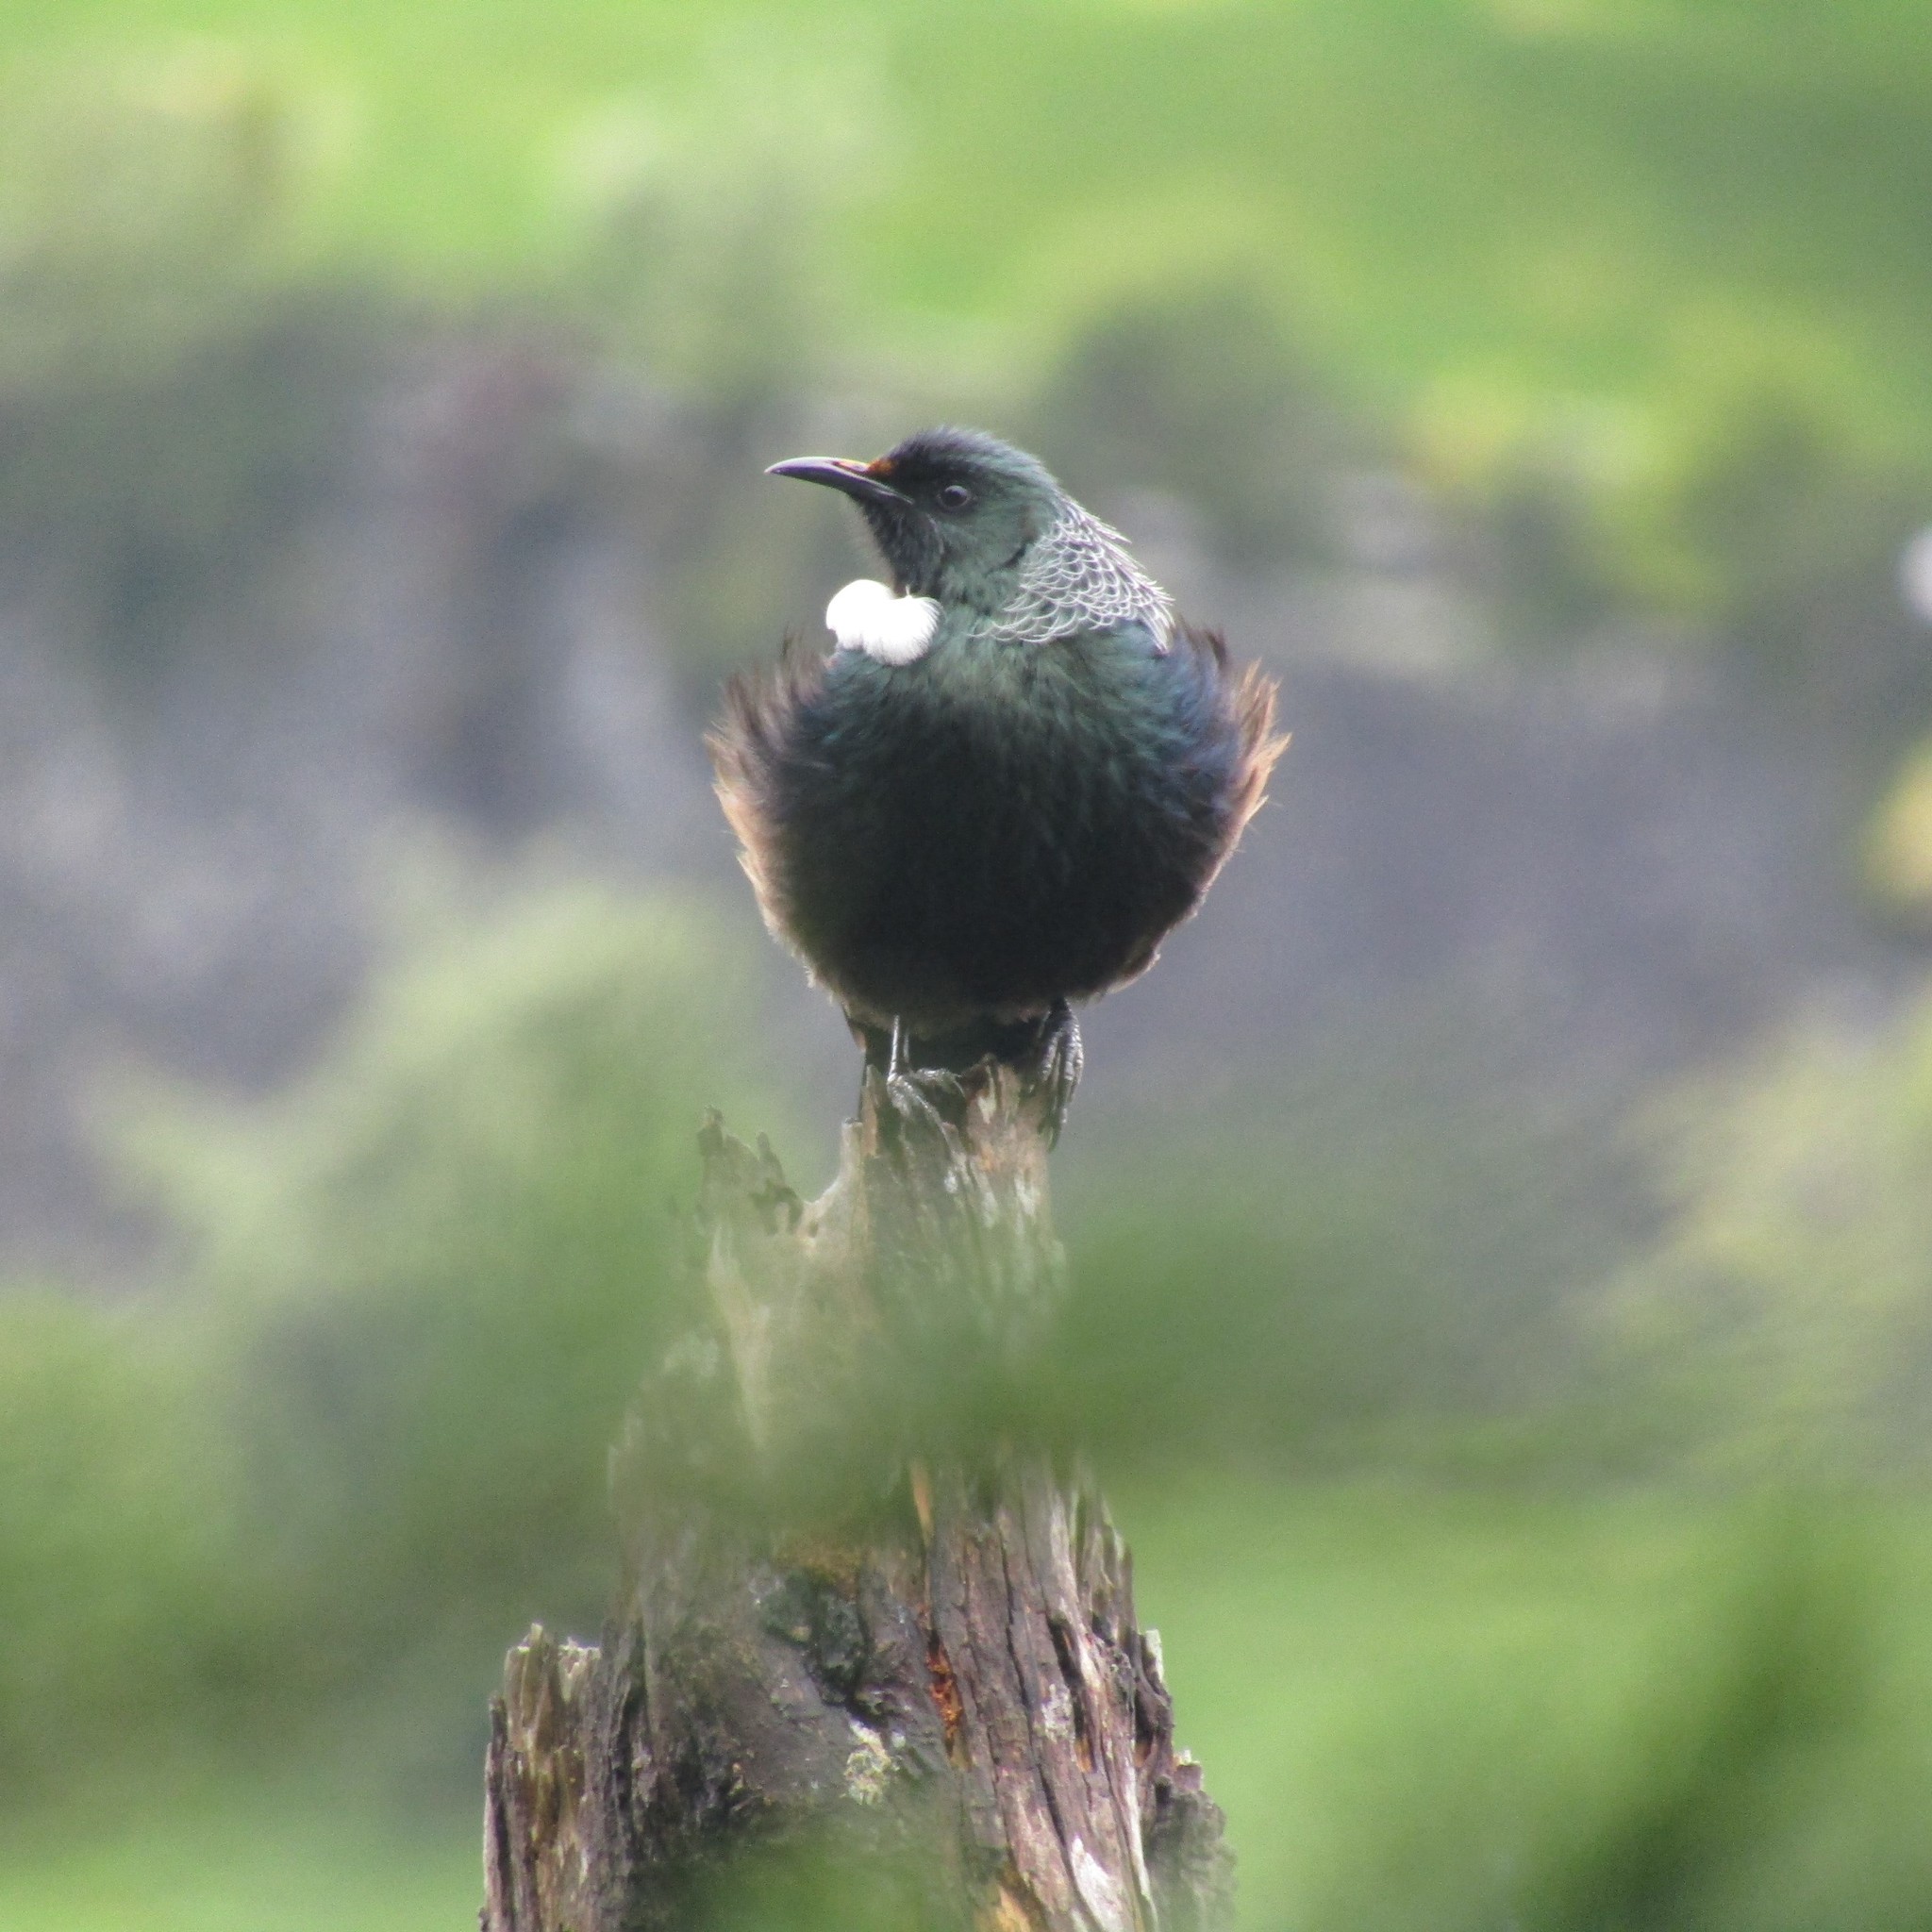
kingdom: Animalia
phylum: Chordata
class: Aves
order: Passeriformes
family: Meliphagidae
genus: Prosthemadera
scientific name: Prosthemadera novaeseelandiae
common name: Tui
